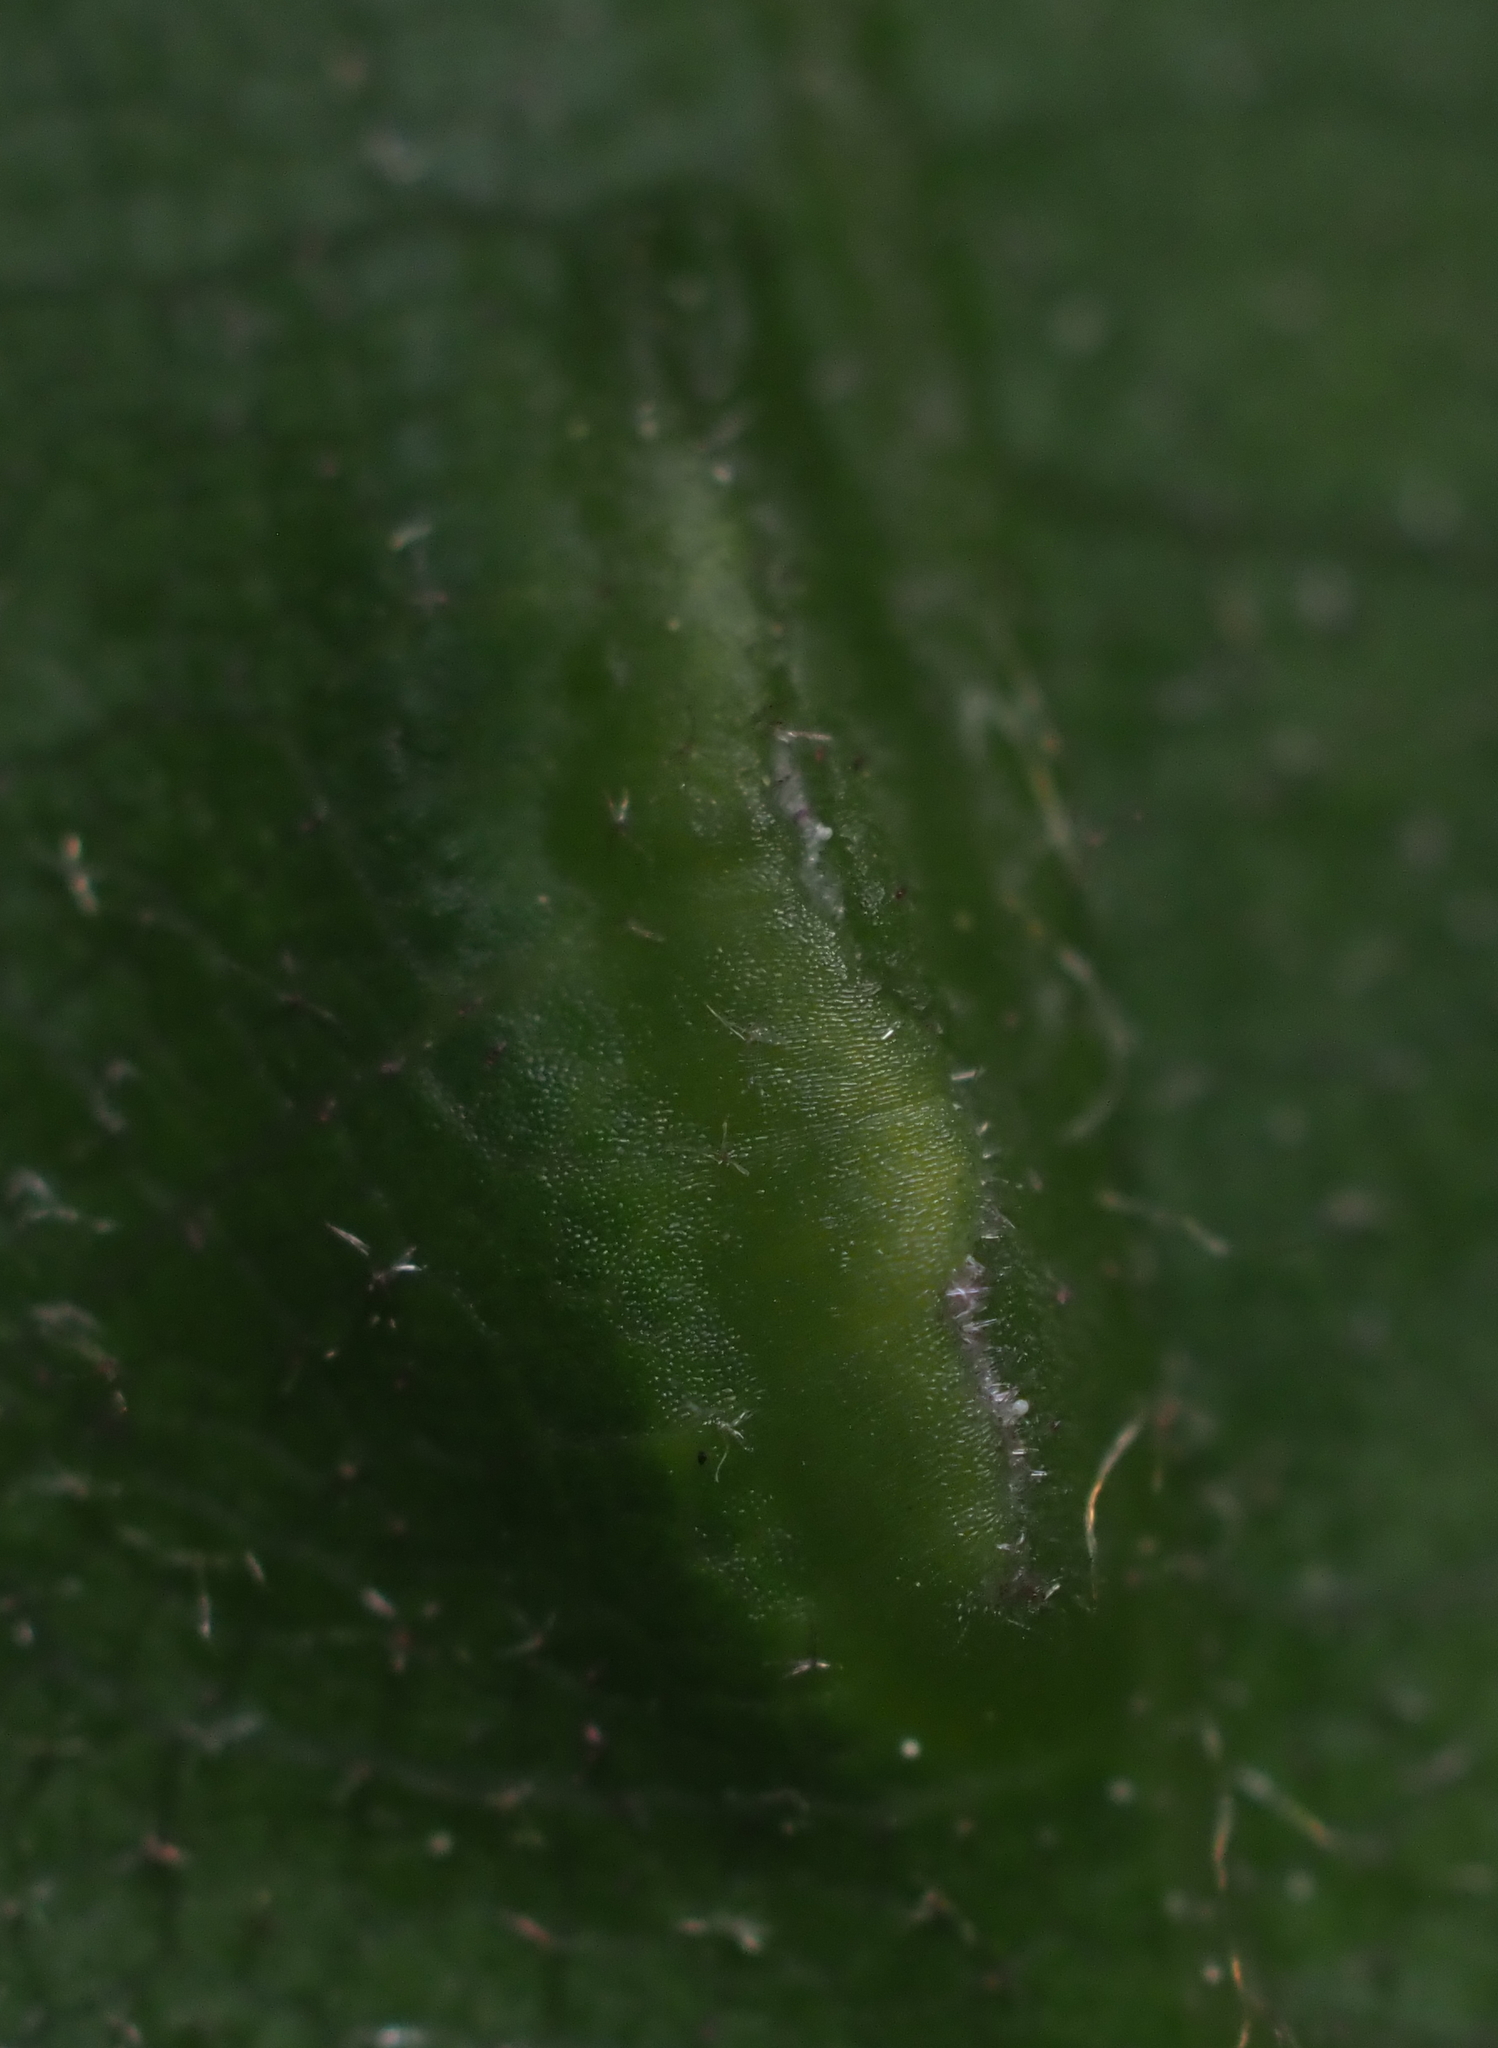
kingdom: Animalia
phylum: Arthropoda
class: Insecta
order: Diptera
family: Cecidomyiidae
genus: Macrodiplosis
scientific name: Macrodiplosis majalis
